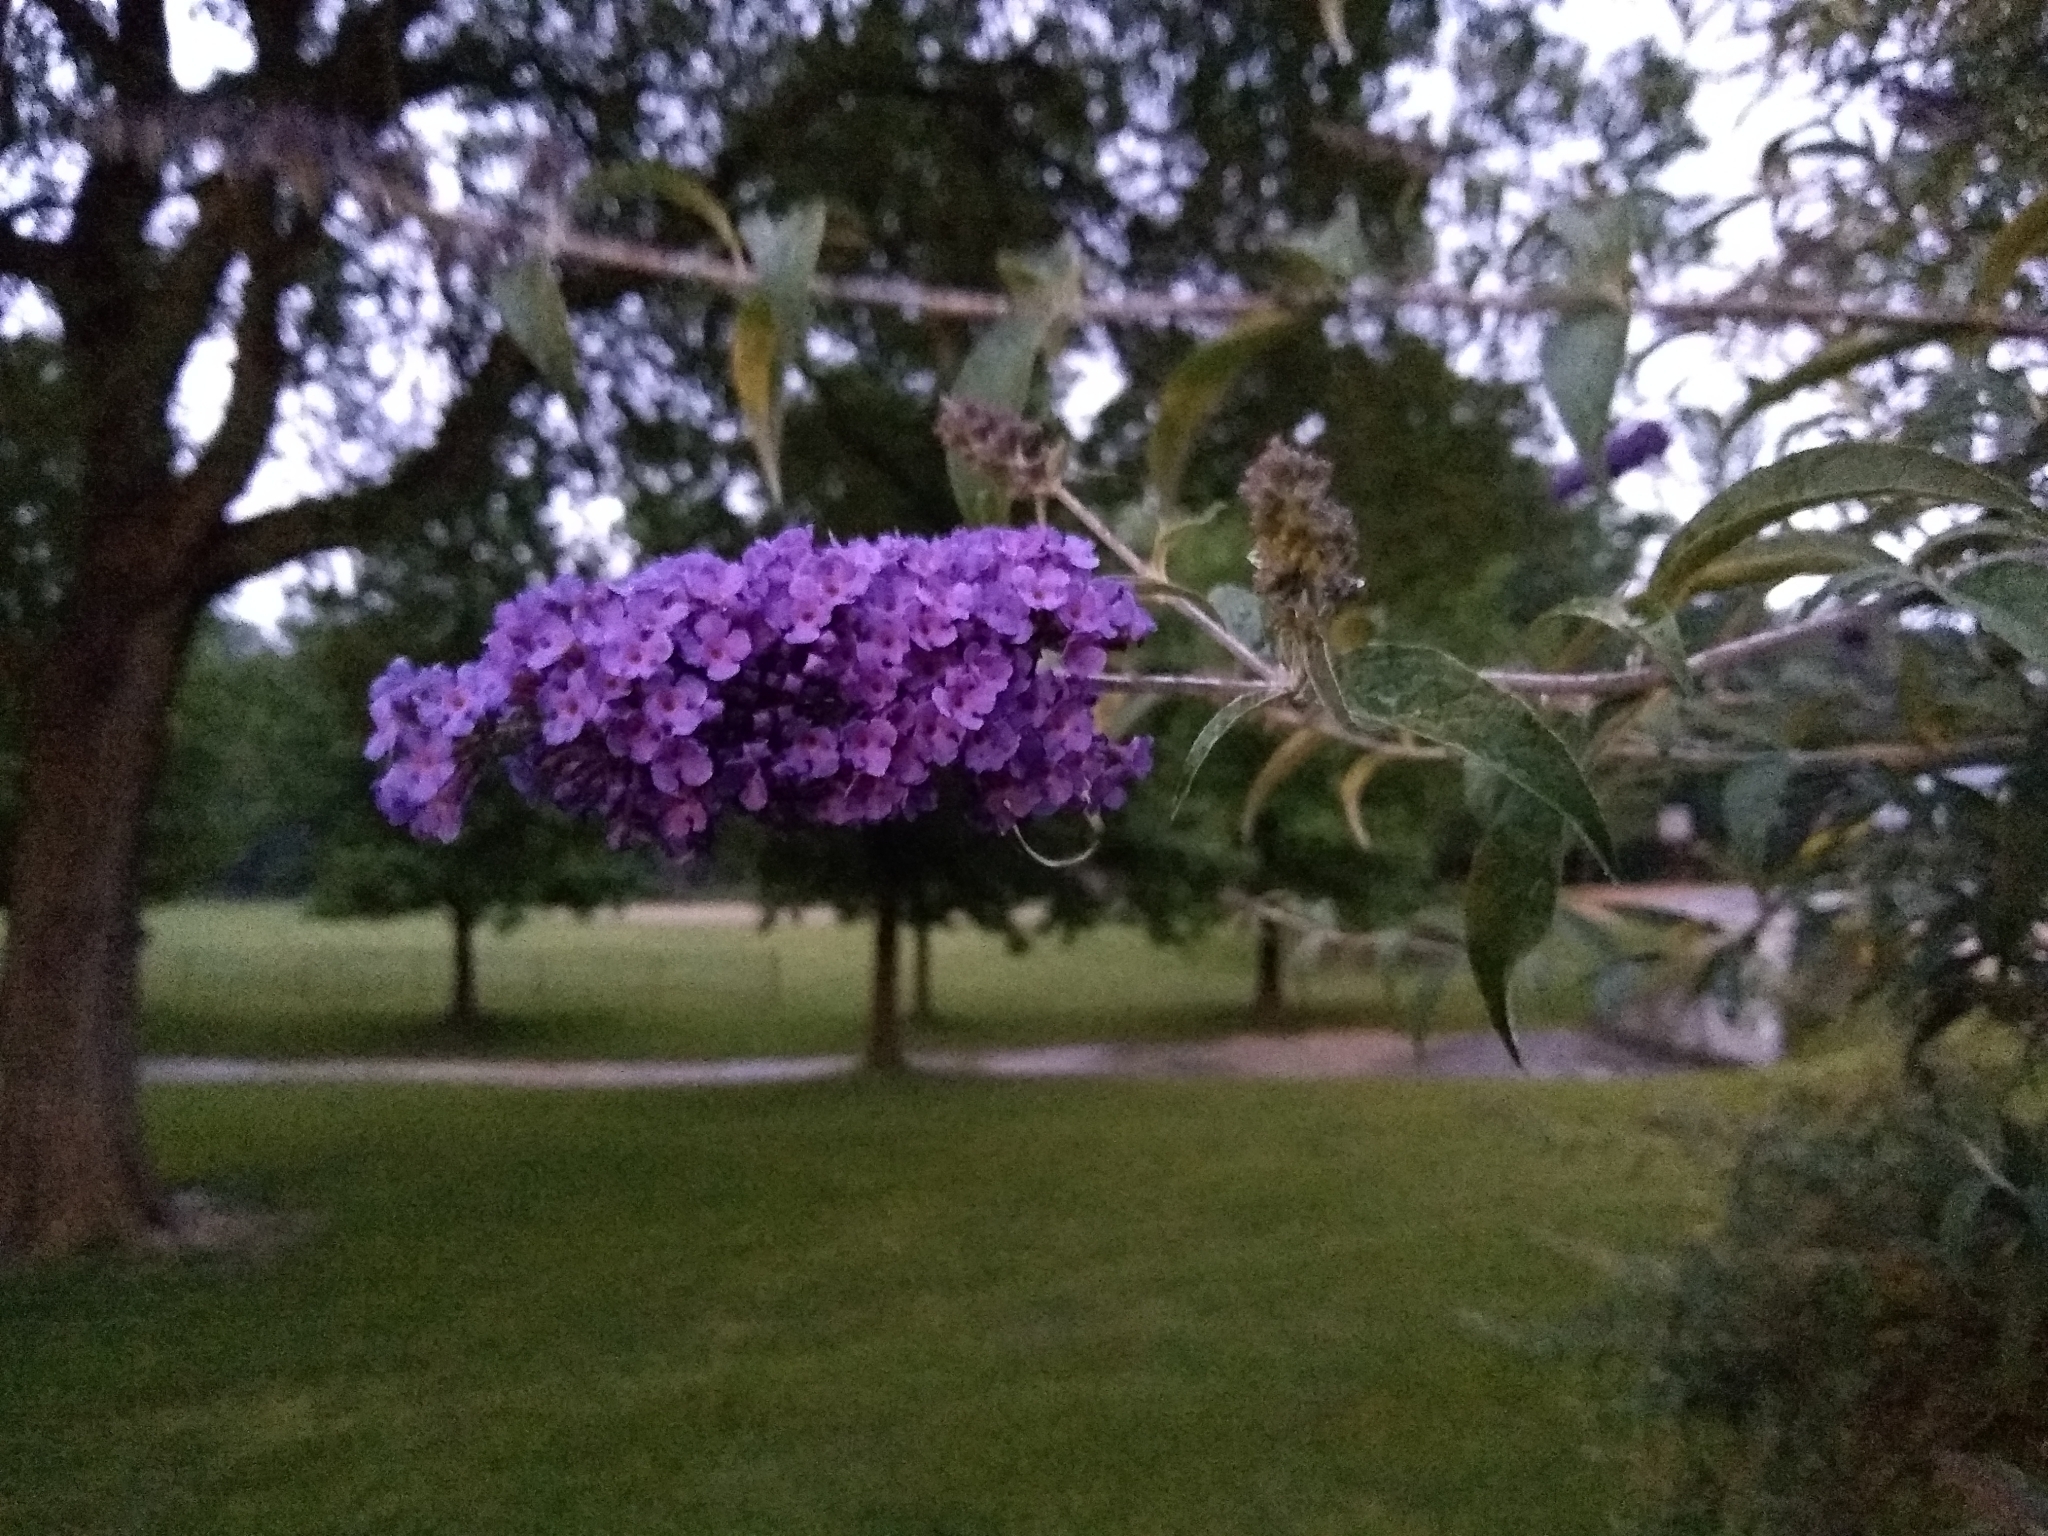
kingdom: Plantae
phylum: Tracheophyta
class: Magnoliopsida
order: Lamiales
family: Scrophulariaceae
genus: Buddleja
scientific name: Buddleja davidii
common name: Butterfly-bush
